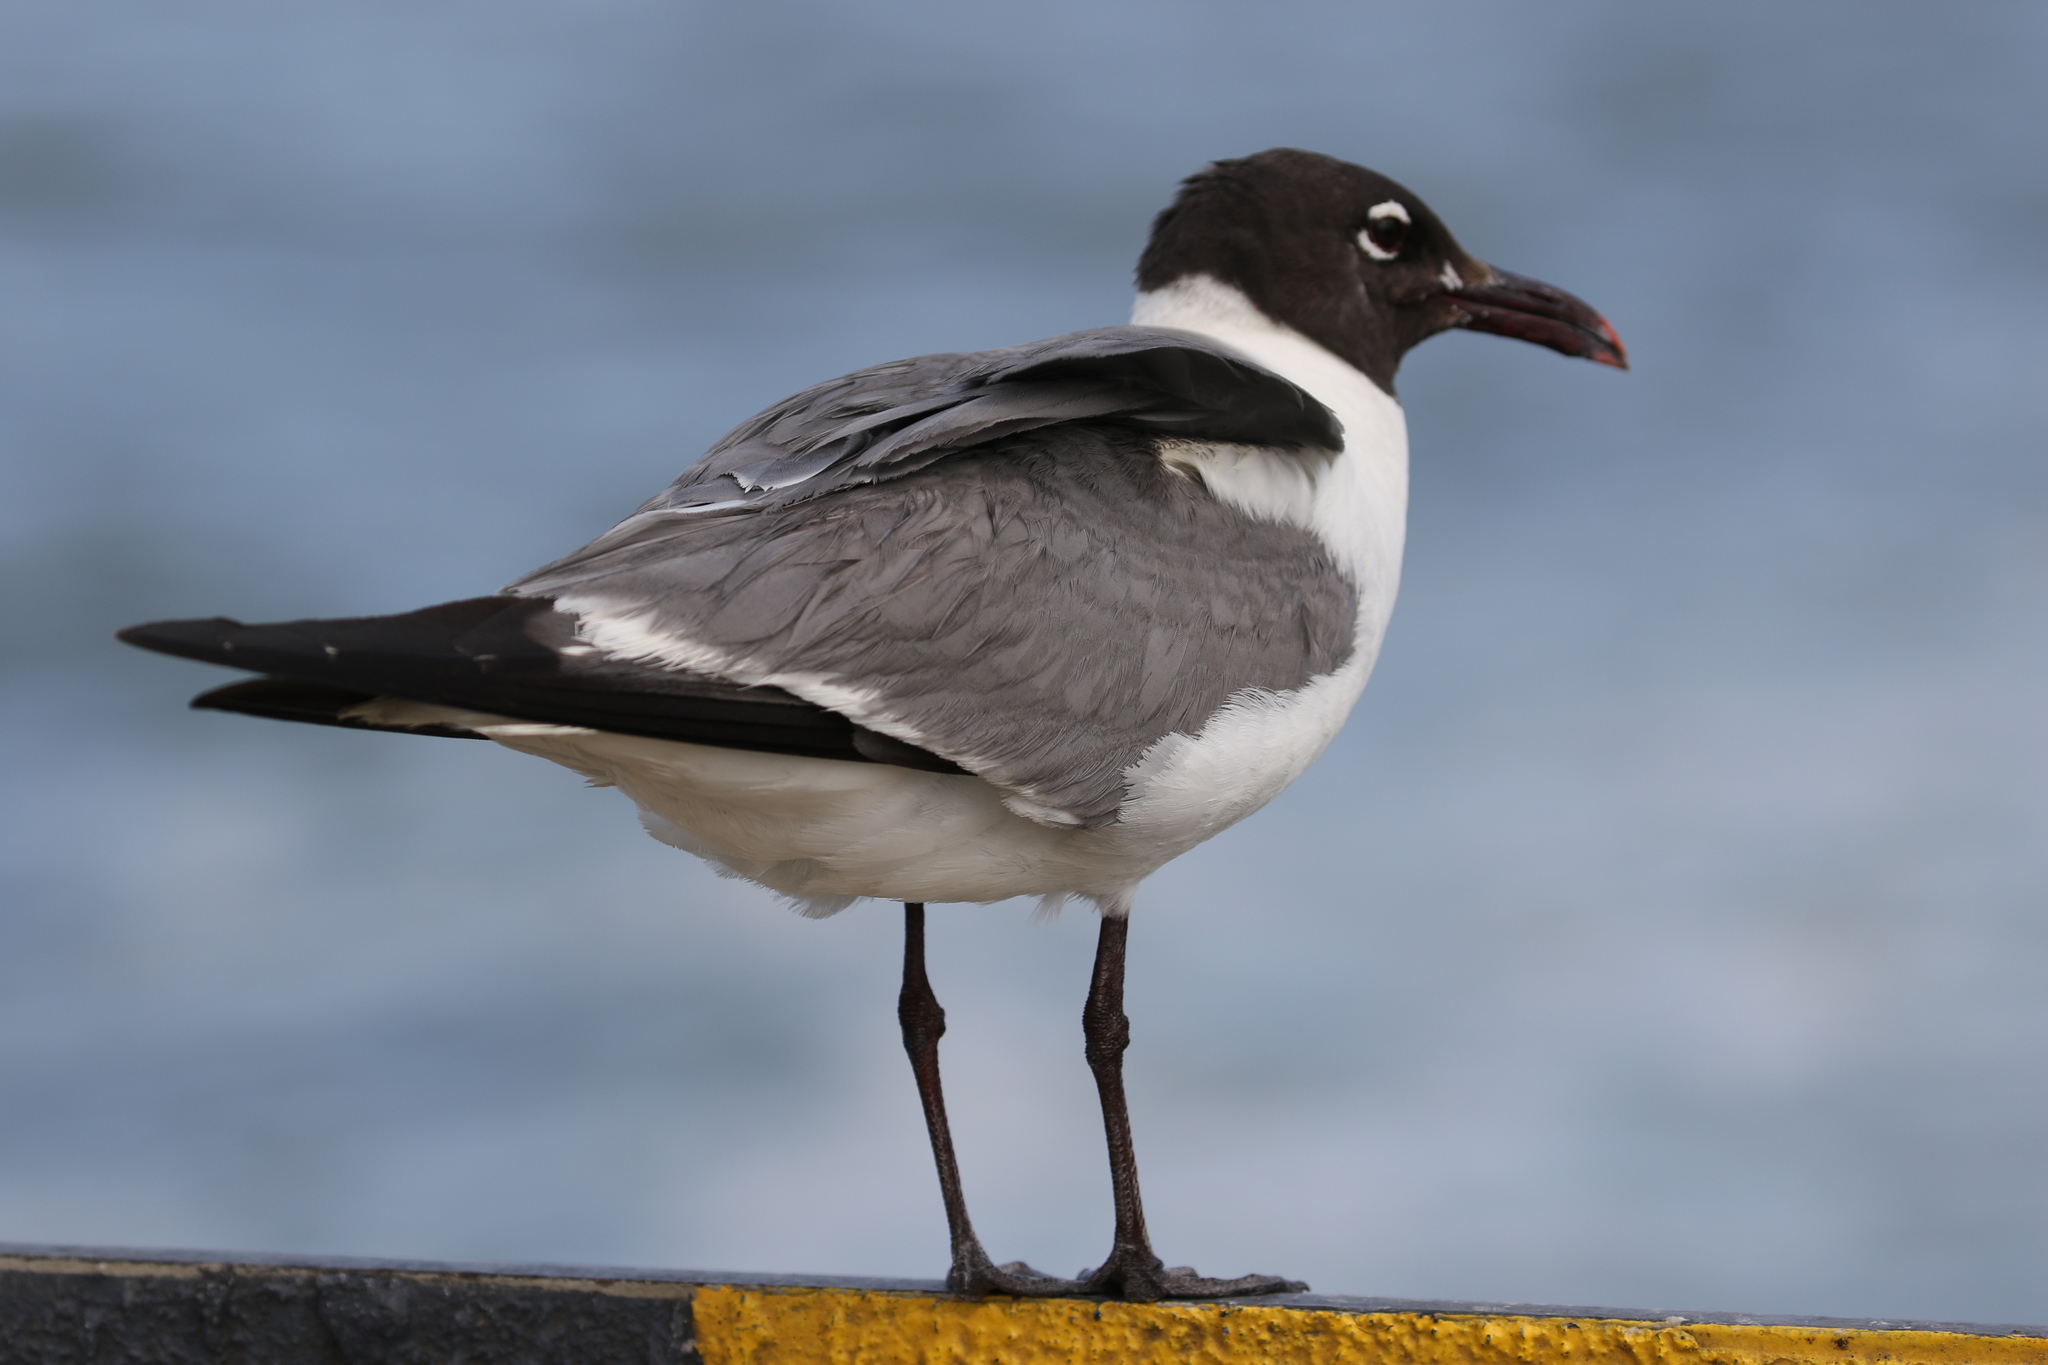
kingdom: Animalia
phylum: Chordata
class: Aves
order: Charadriiformes
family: Laridae
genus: Leucophaeus
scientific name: Leucophaeus atricilla
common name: Laughing gull
